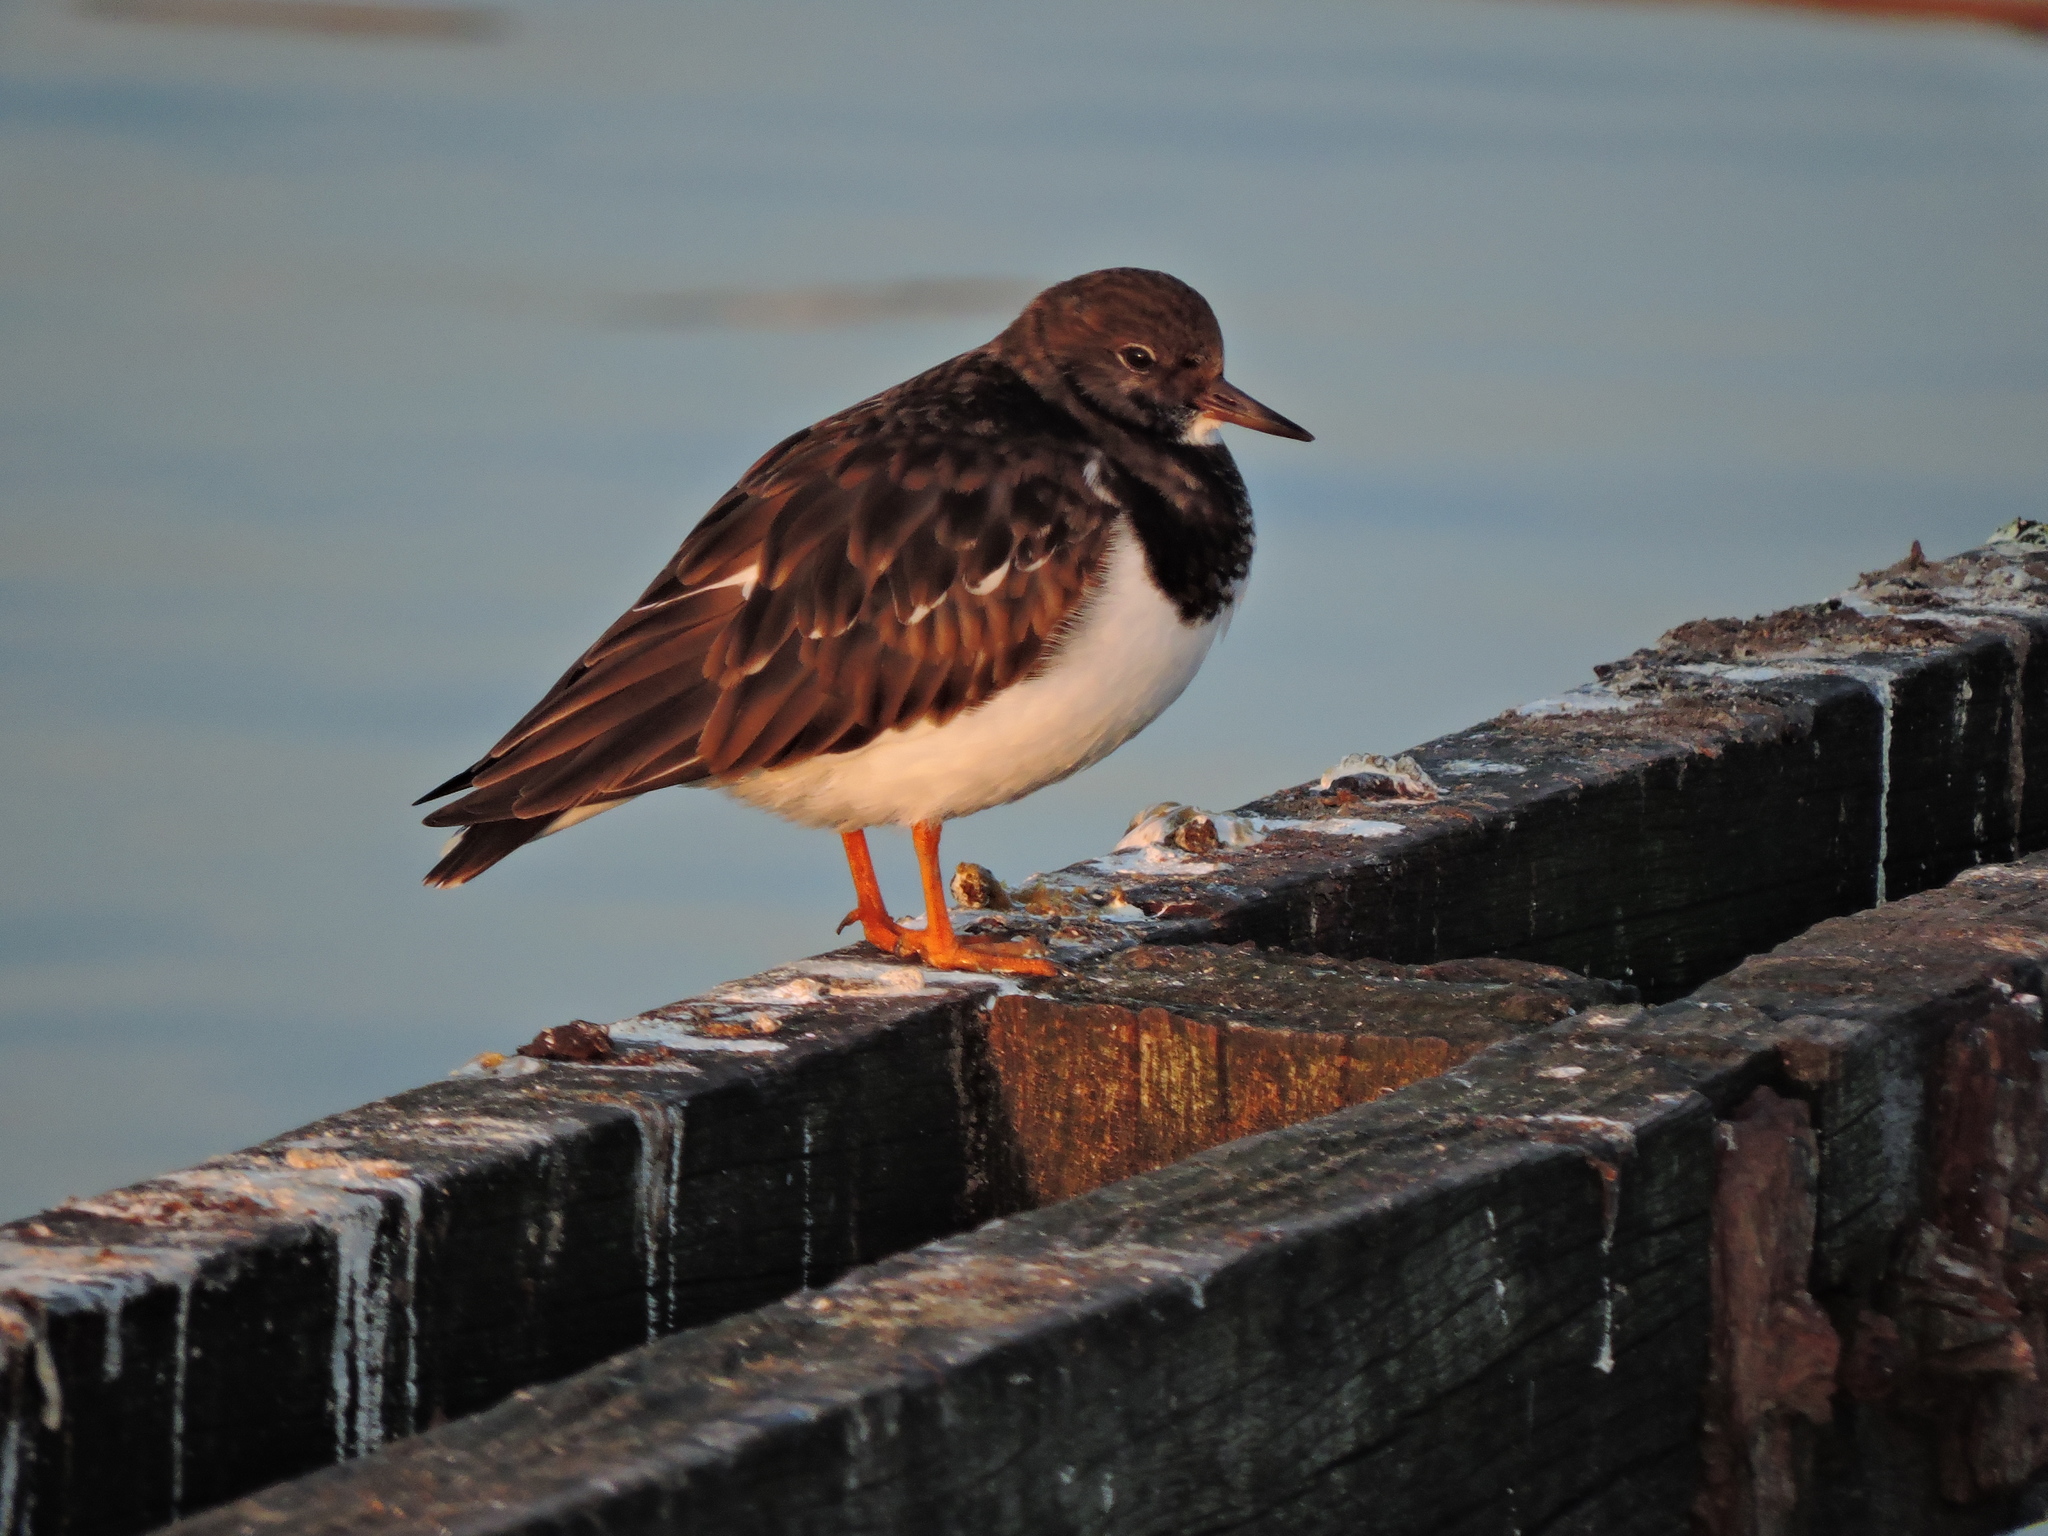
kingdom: Animalia
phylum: Chordata
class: Aves
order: Charadriiformes
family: Scolopacidae
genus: Arenaria
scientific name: Arenaria interpres
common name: Ruddy turnstone
